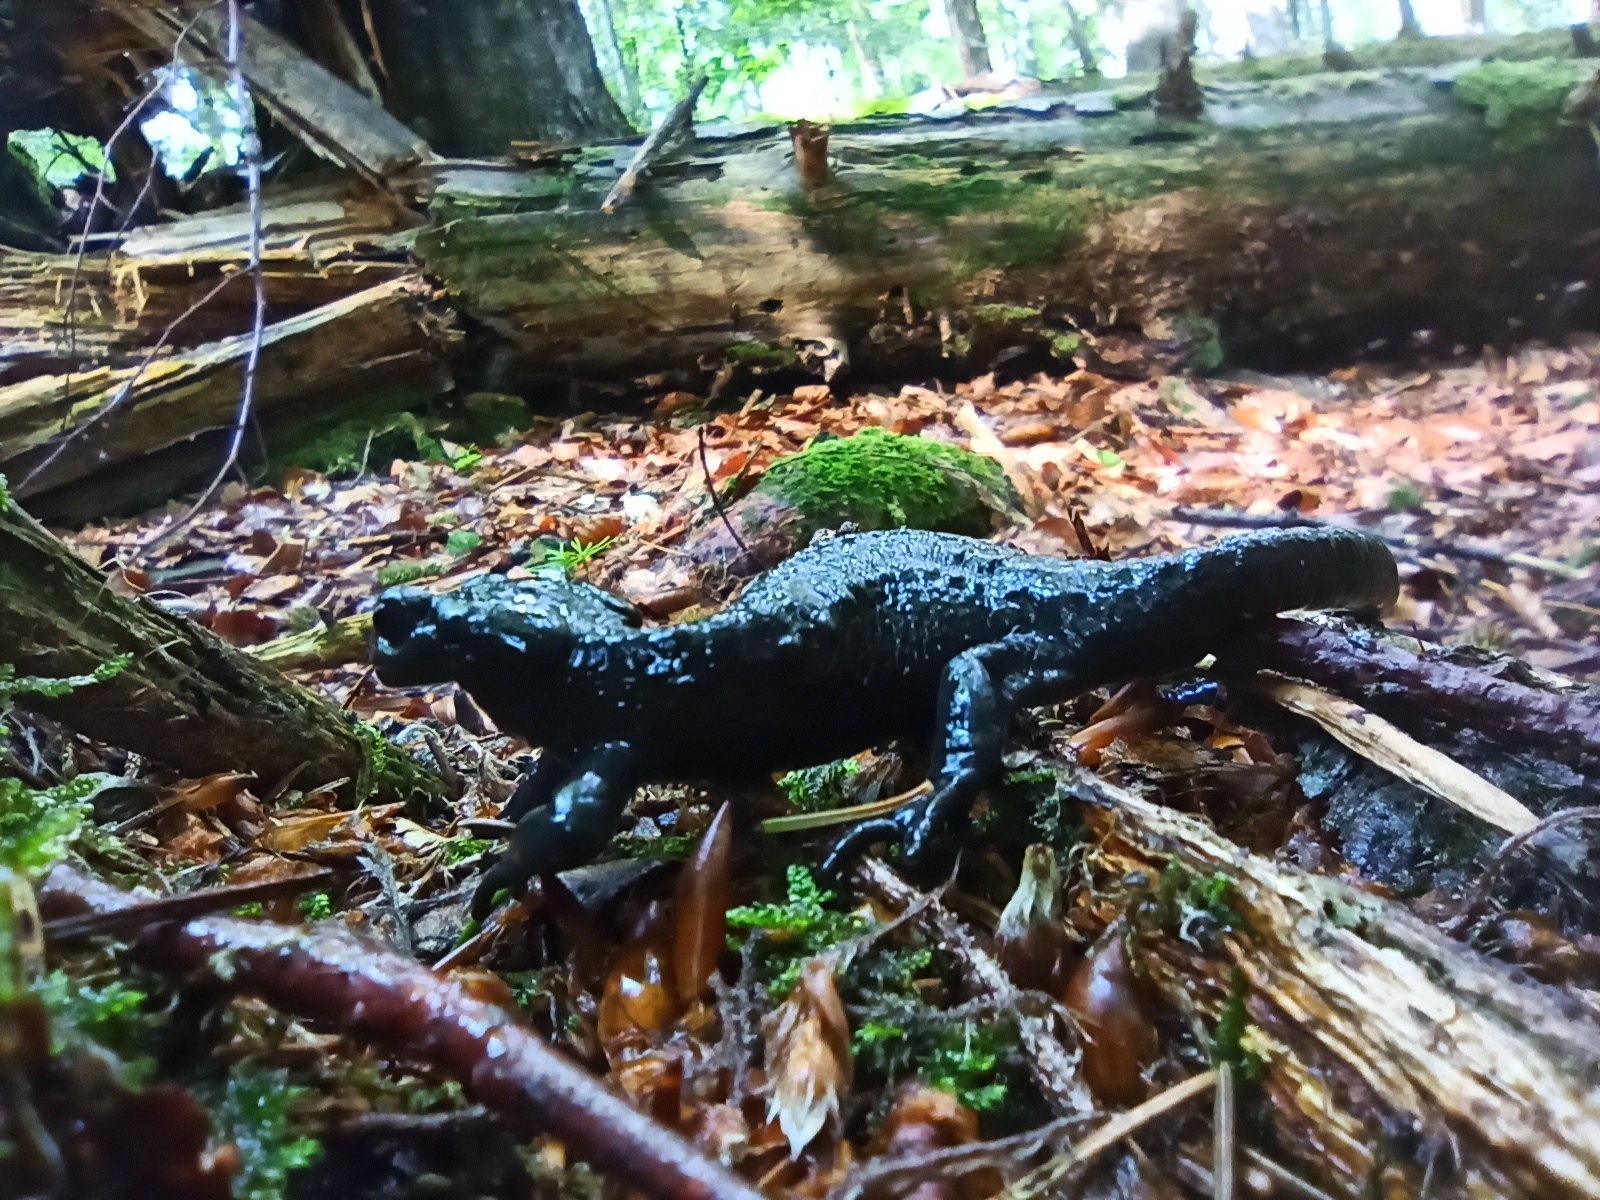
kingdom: Animalia
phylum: Chordata
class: Amphibia
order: Caudata
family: Salamandridae
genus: Salamandra
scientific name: Salamandra atra
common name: Alpine salamander
